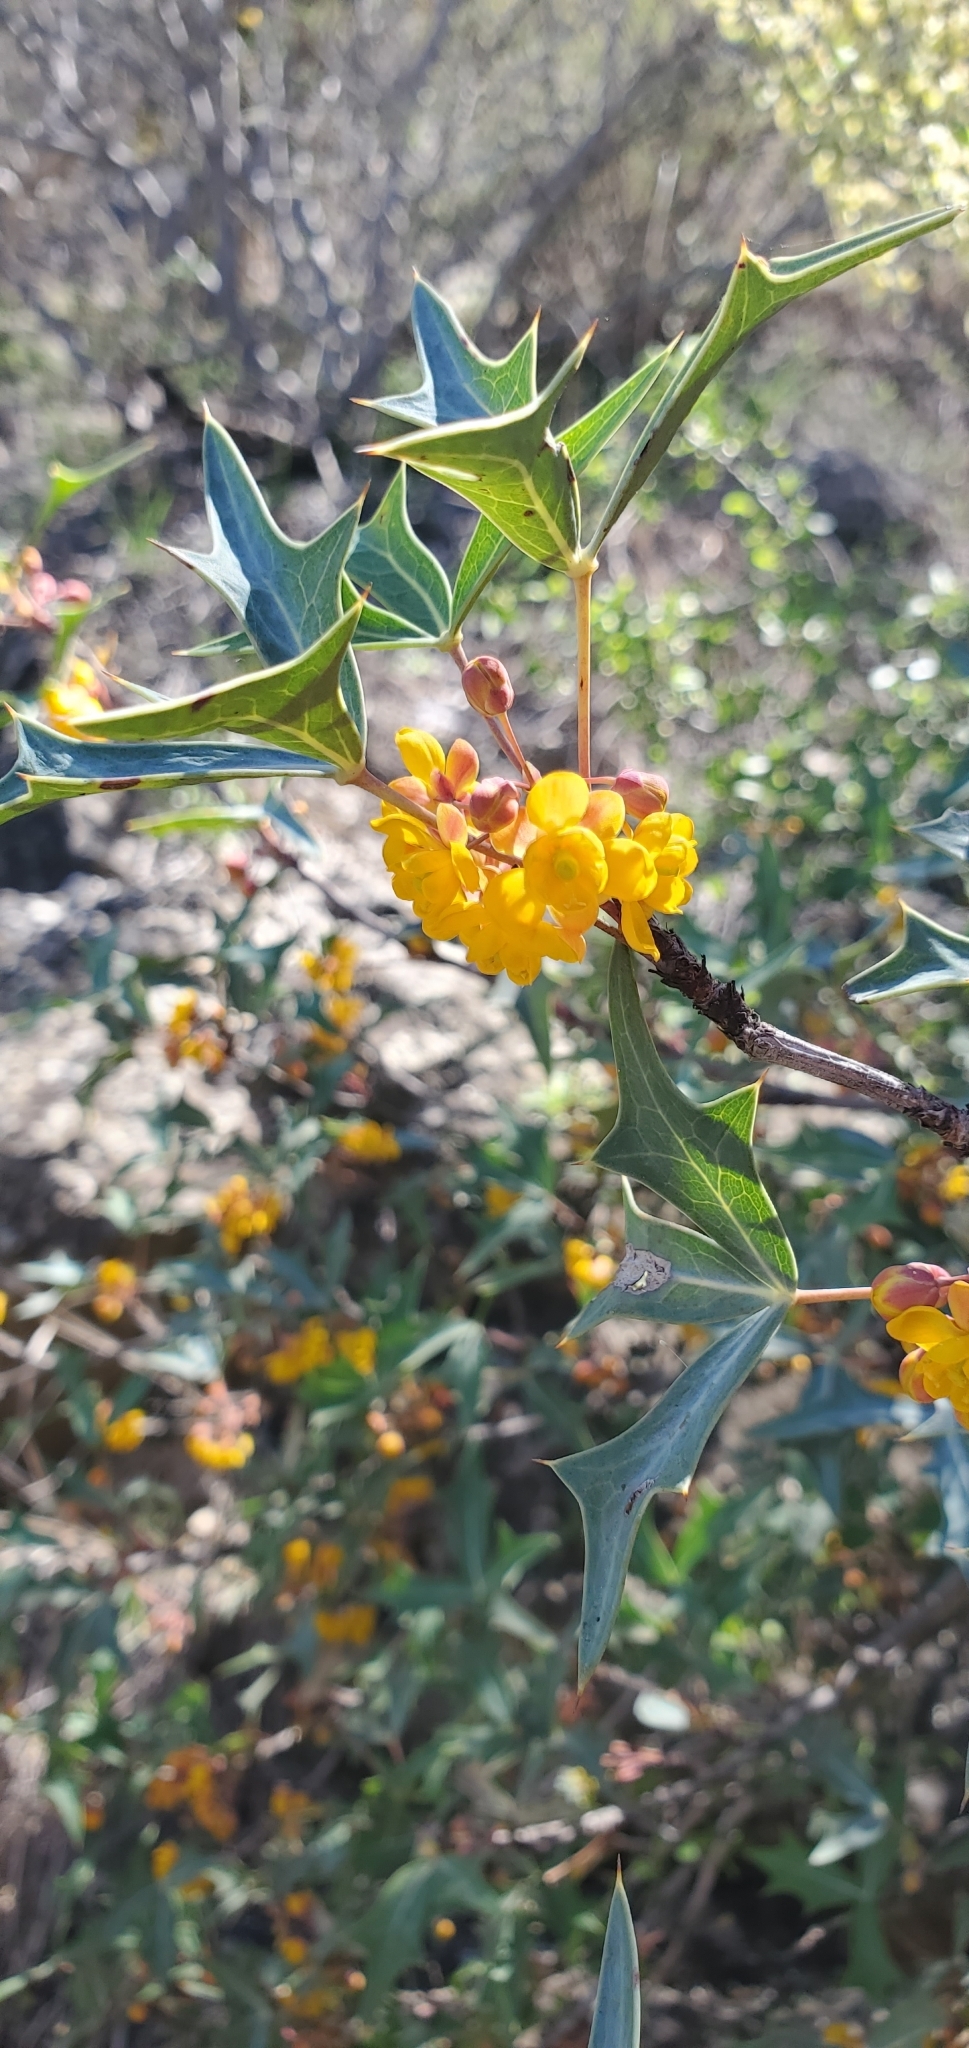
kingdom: Plantae
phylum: Tracheophyta
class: Magnoliopsida
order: Ranunculales
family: Berberidaceae
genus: Alloberberis
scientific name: Alloberberis trifoliolata
